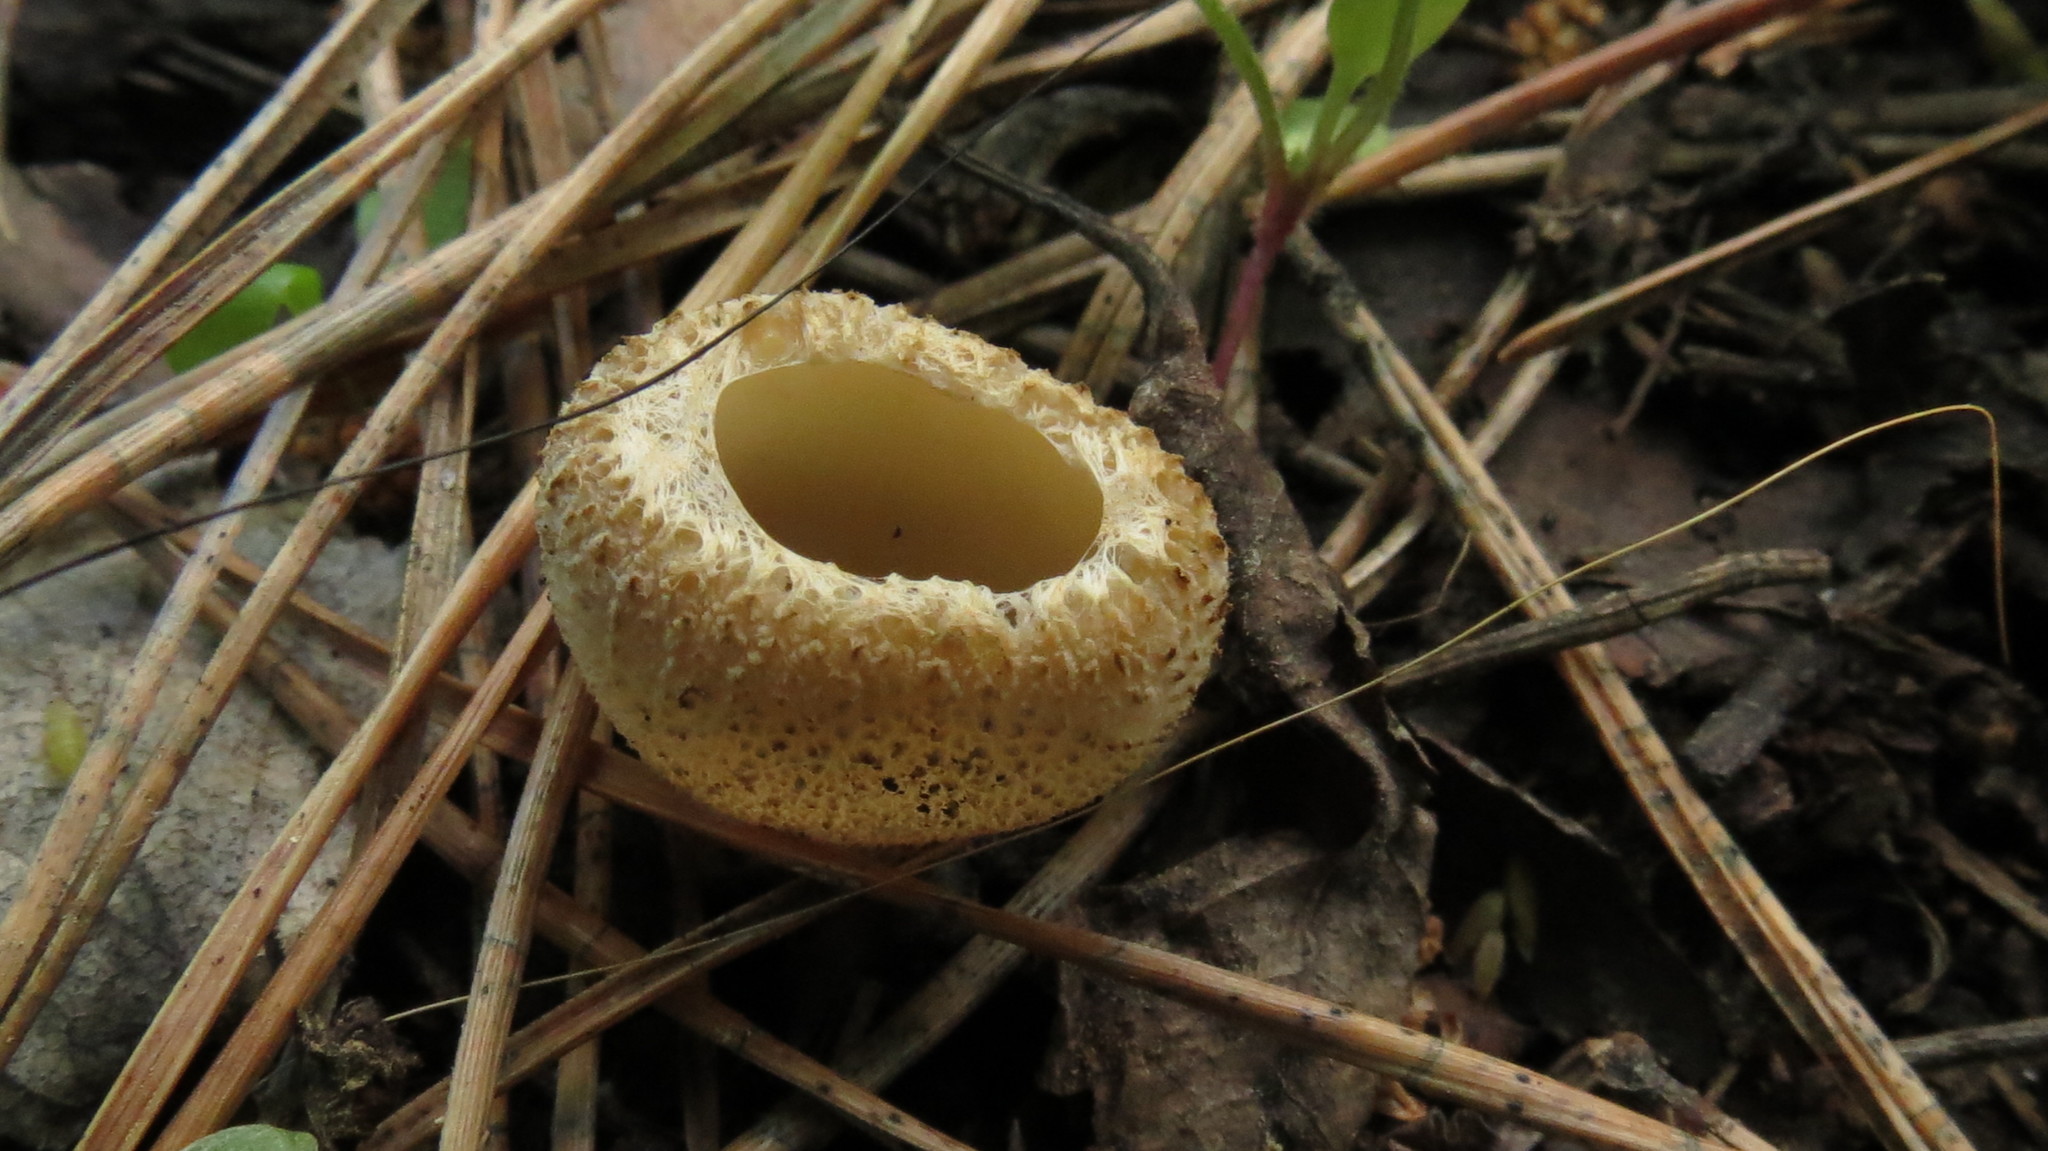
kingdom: Fungi
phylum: Ascomycota
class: Pezizomycetes
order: Pezizales
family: Tarzettaceae
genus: Tarzetta
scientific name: Tarzetta cupularis
